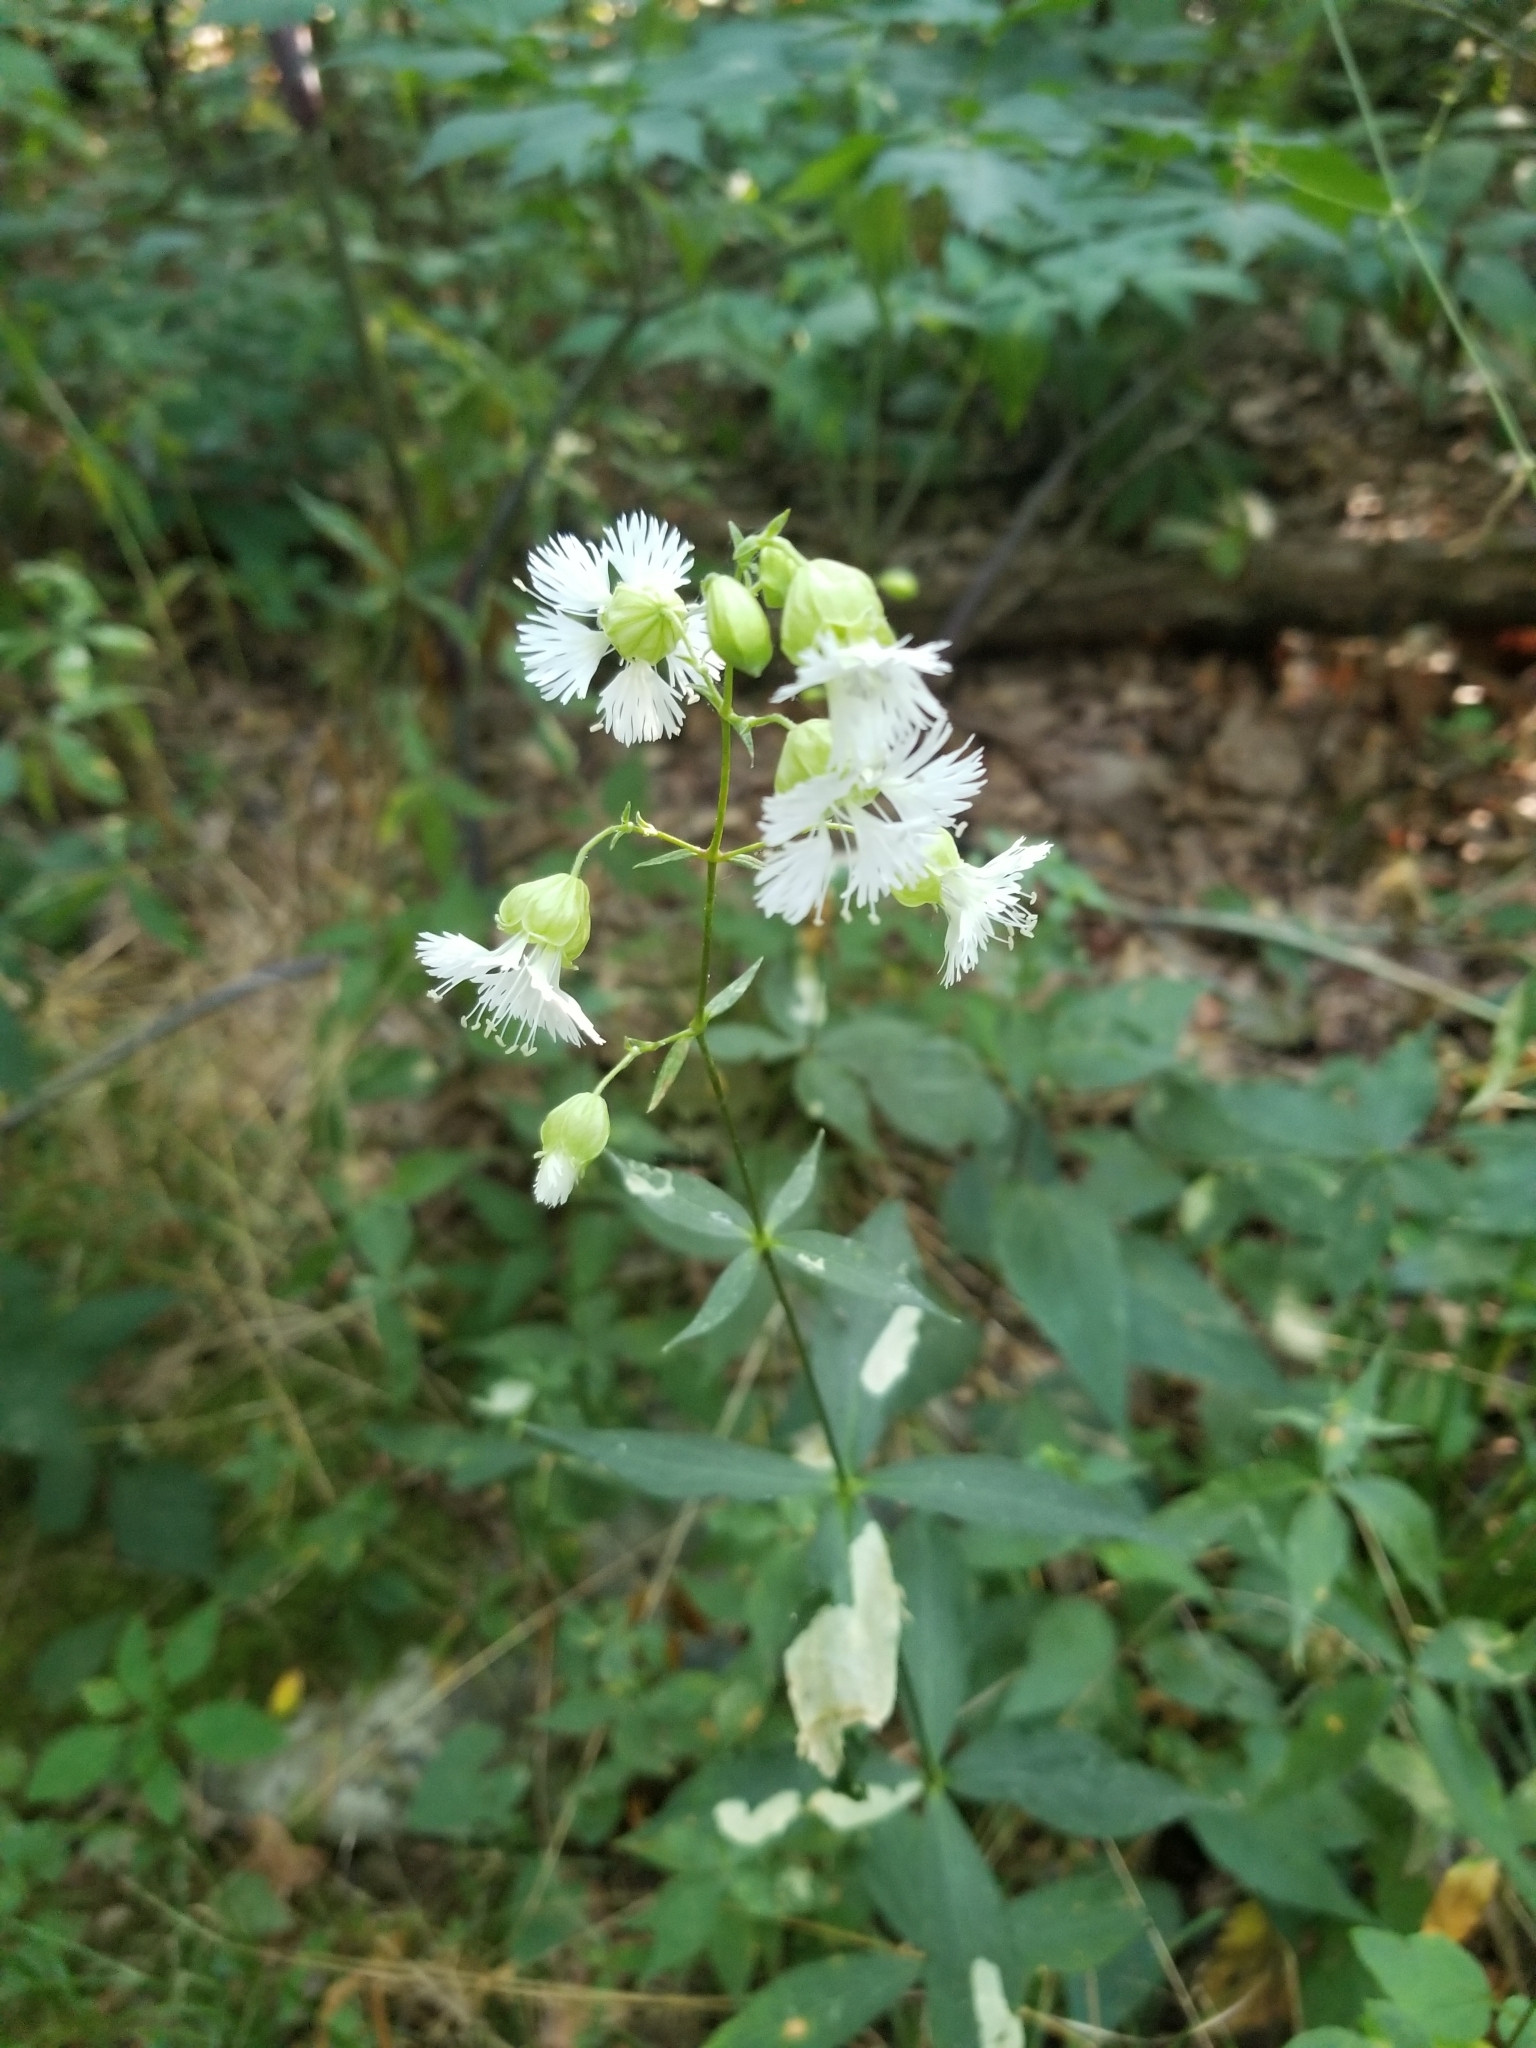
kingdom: Plantae
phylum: Tracheophyta
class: Magnoliopsida
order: Caryophyllales
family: Caryophyllaceae
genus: Silene
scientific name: Silene stellata
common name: Starry campion
